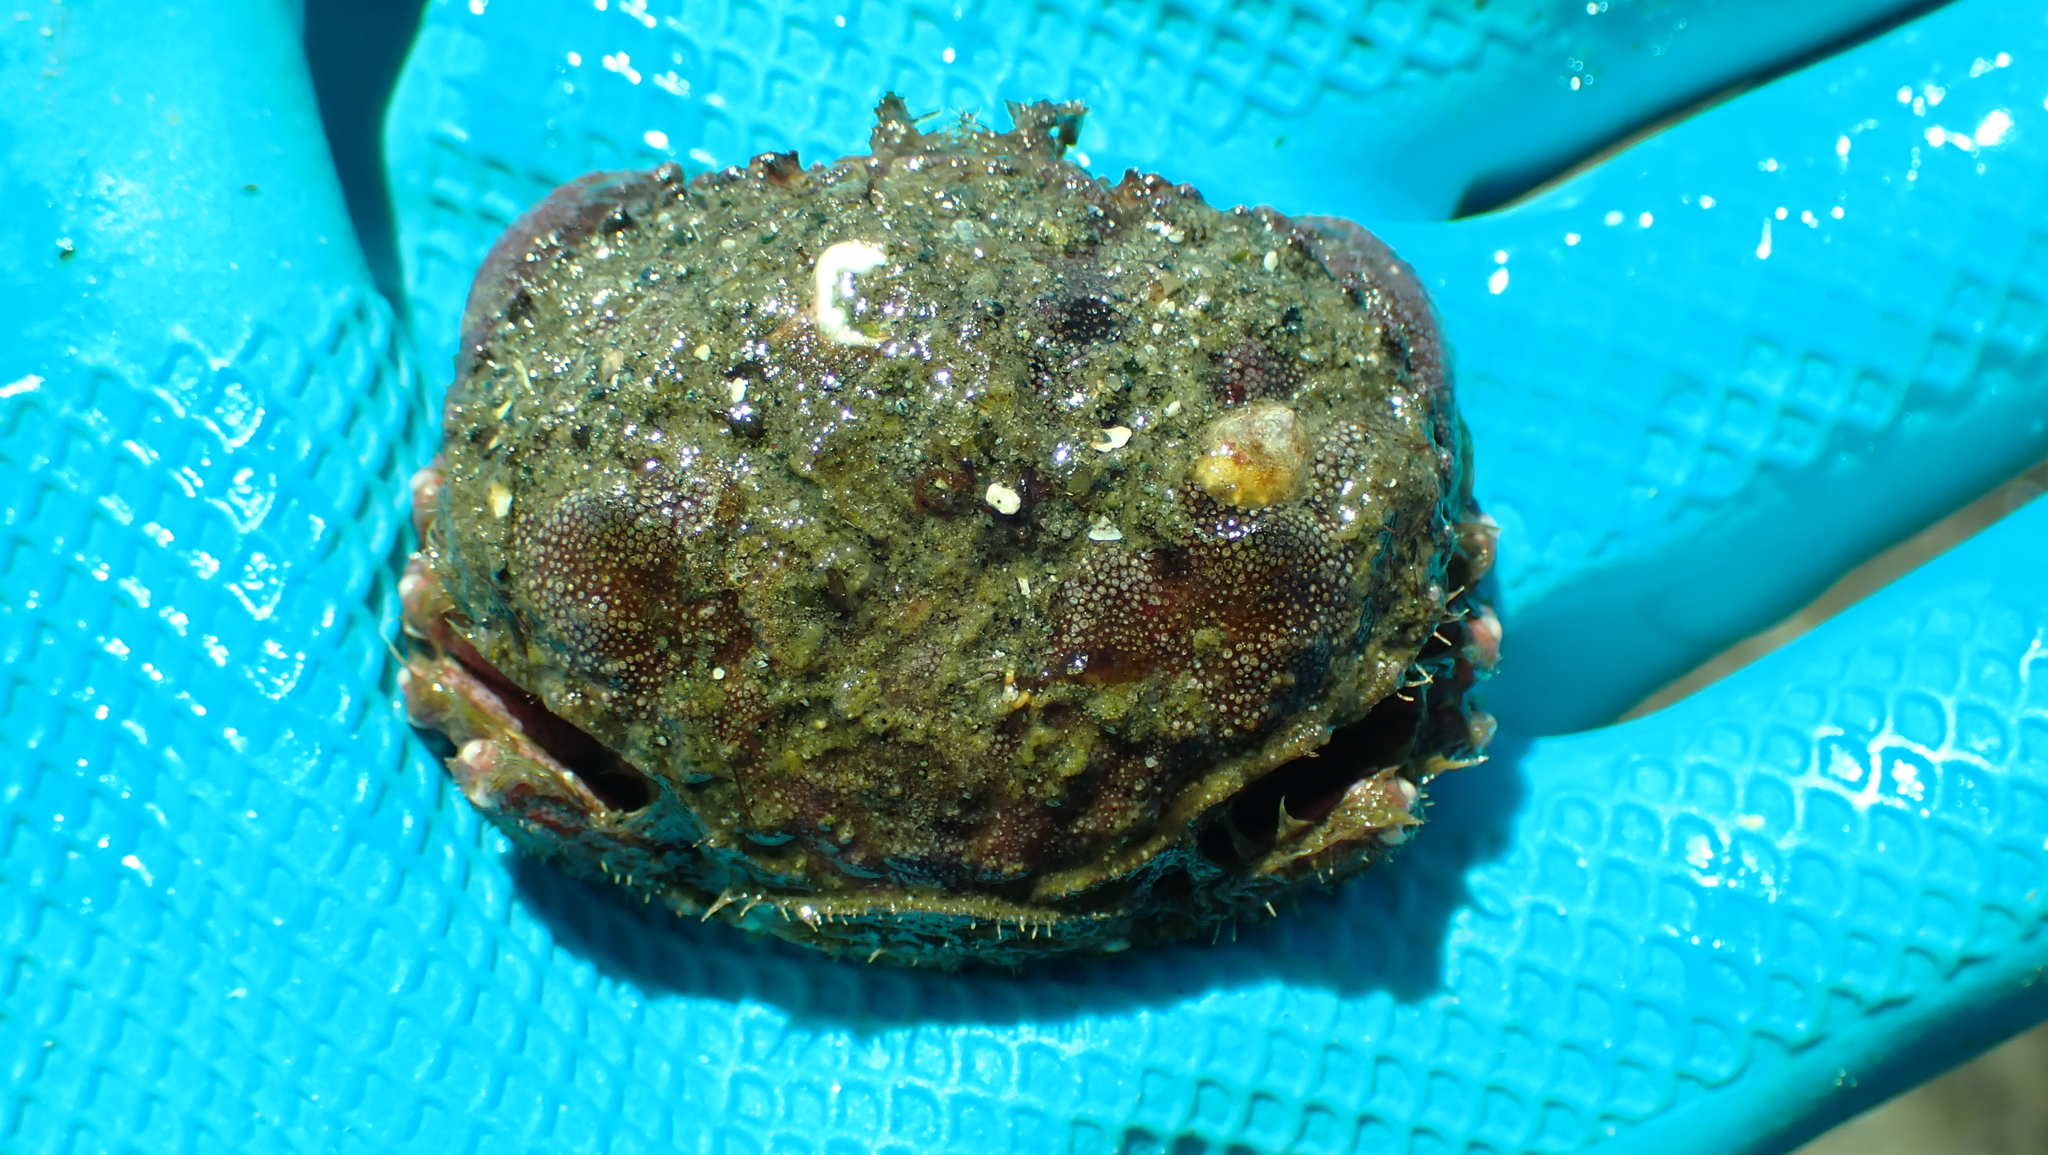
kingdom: Animalia
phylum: Arthropoda
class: Malacostraca
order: Decapoda
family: Cancridae
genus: Glebocarcinus
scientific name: Glebocarcinus oregonensis
